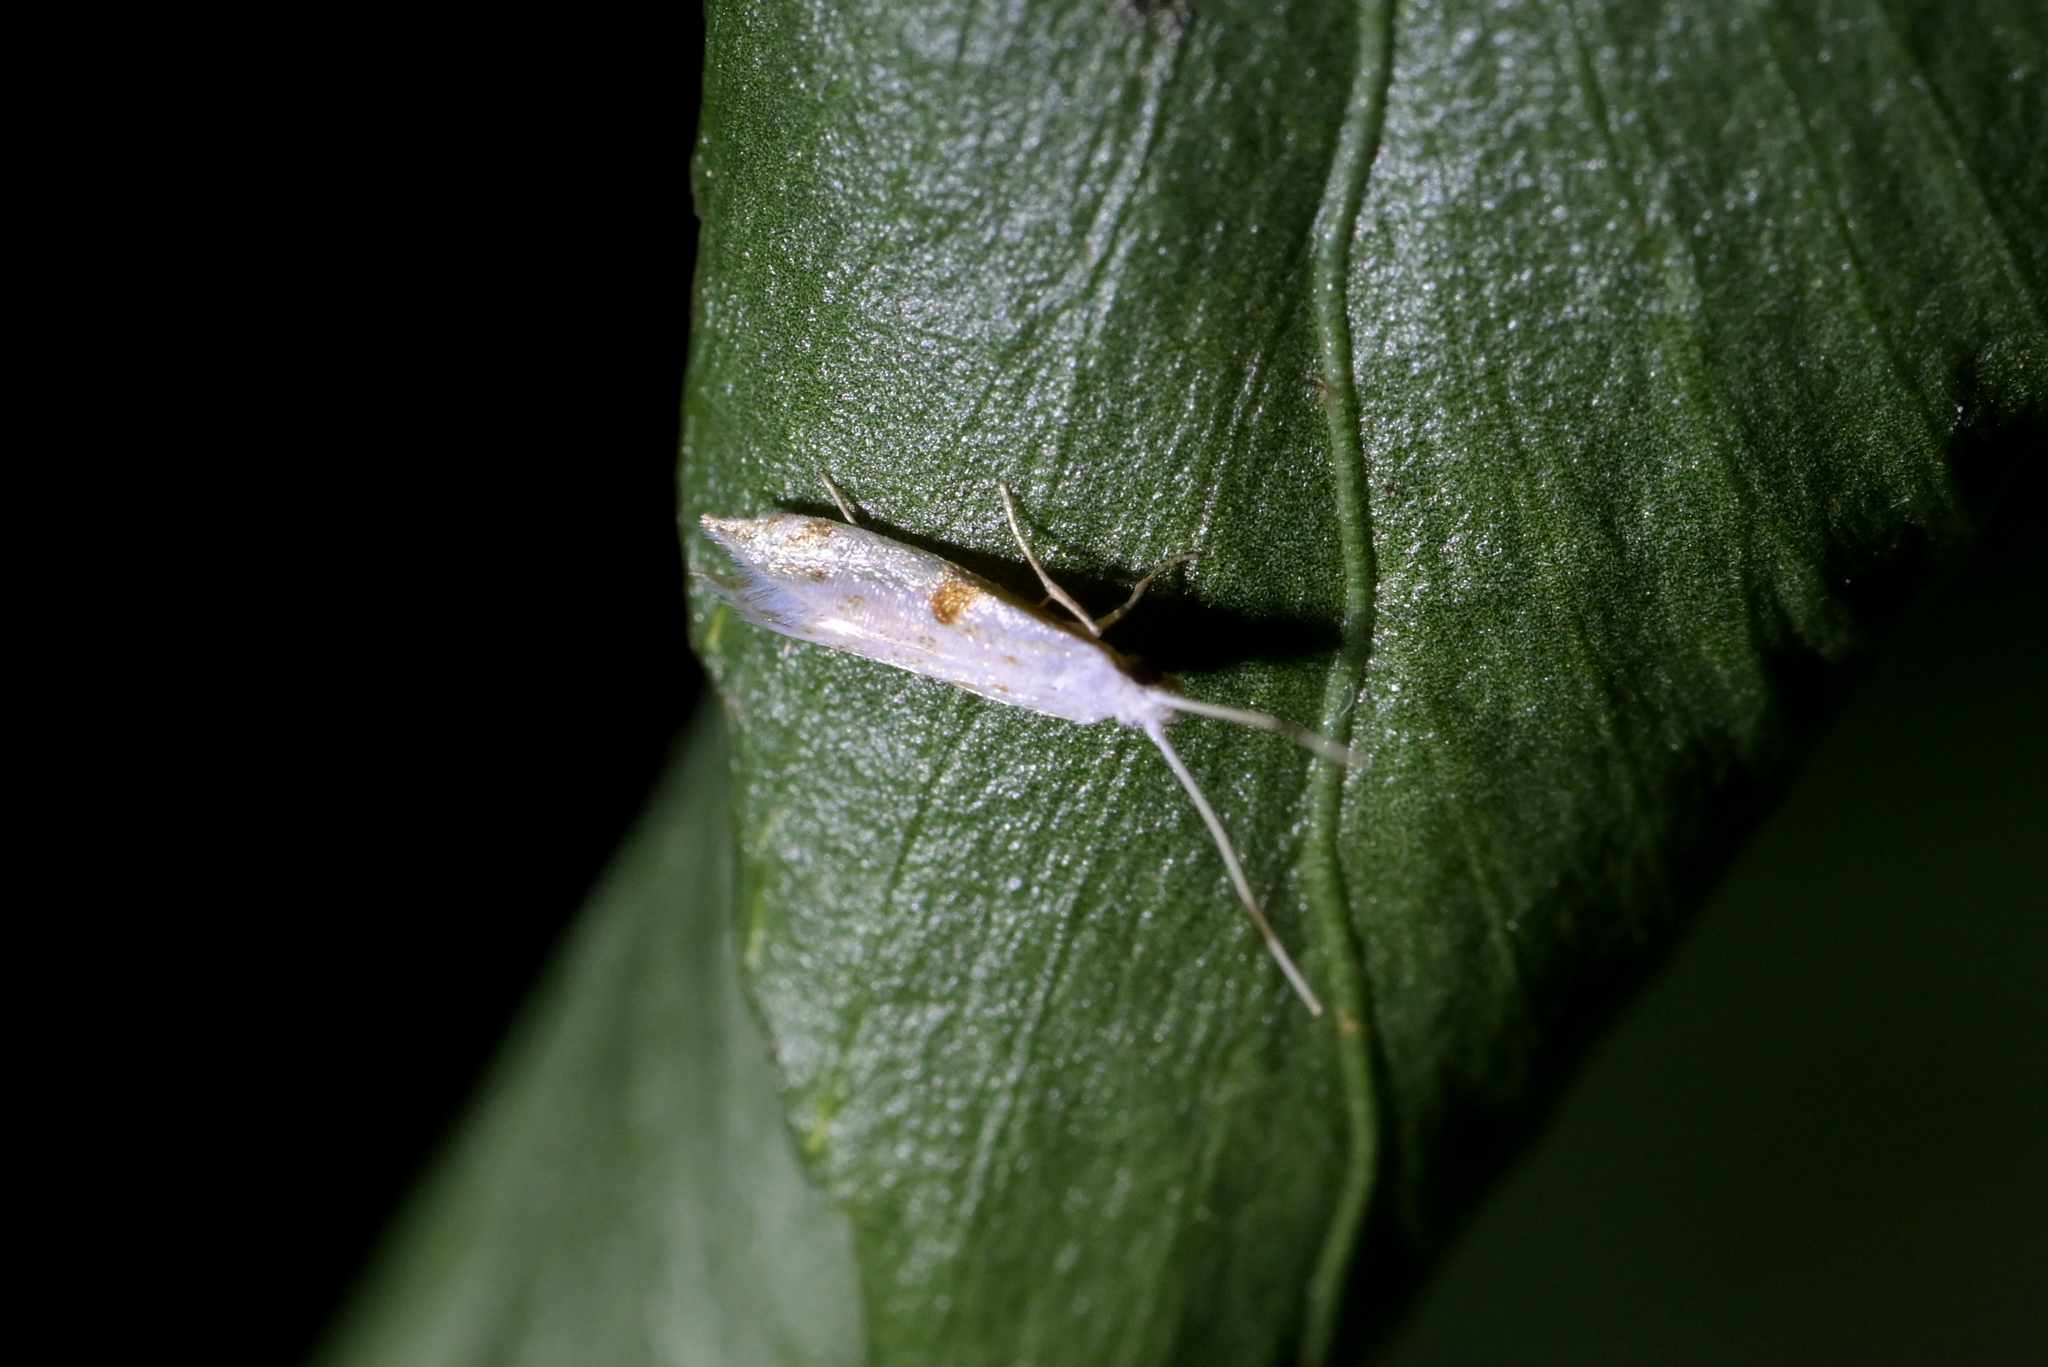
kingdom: Animalia
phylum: Arthropoda
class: Insecta
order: Lepidoptera
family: Tineidae
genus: Sagephora
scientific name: Sagephora felix
